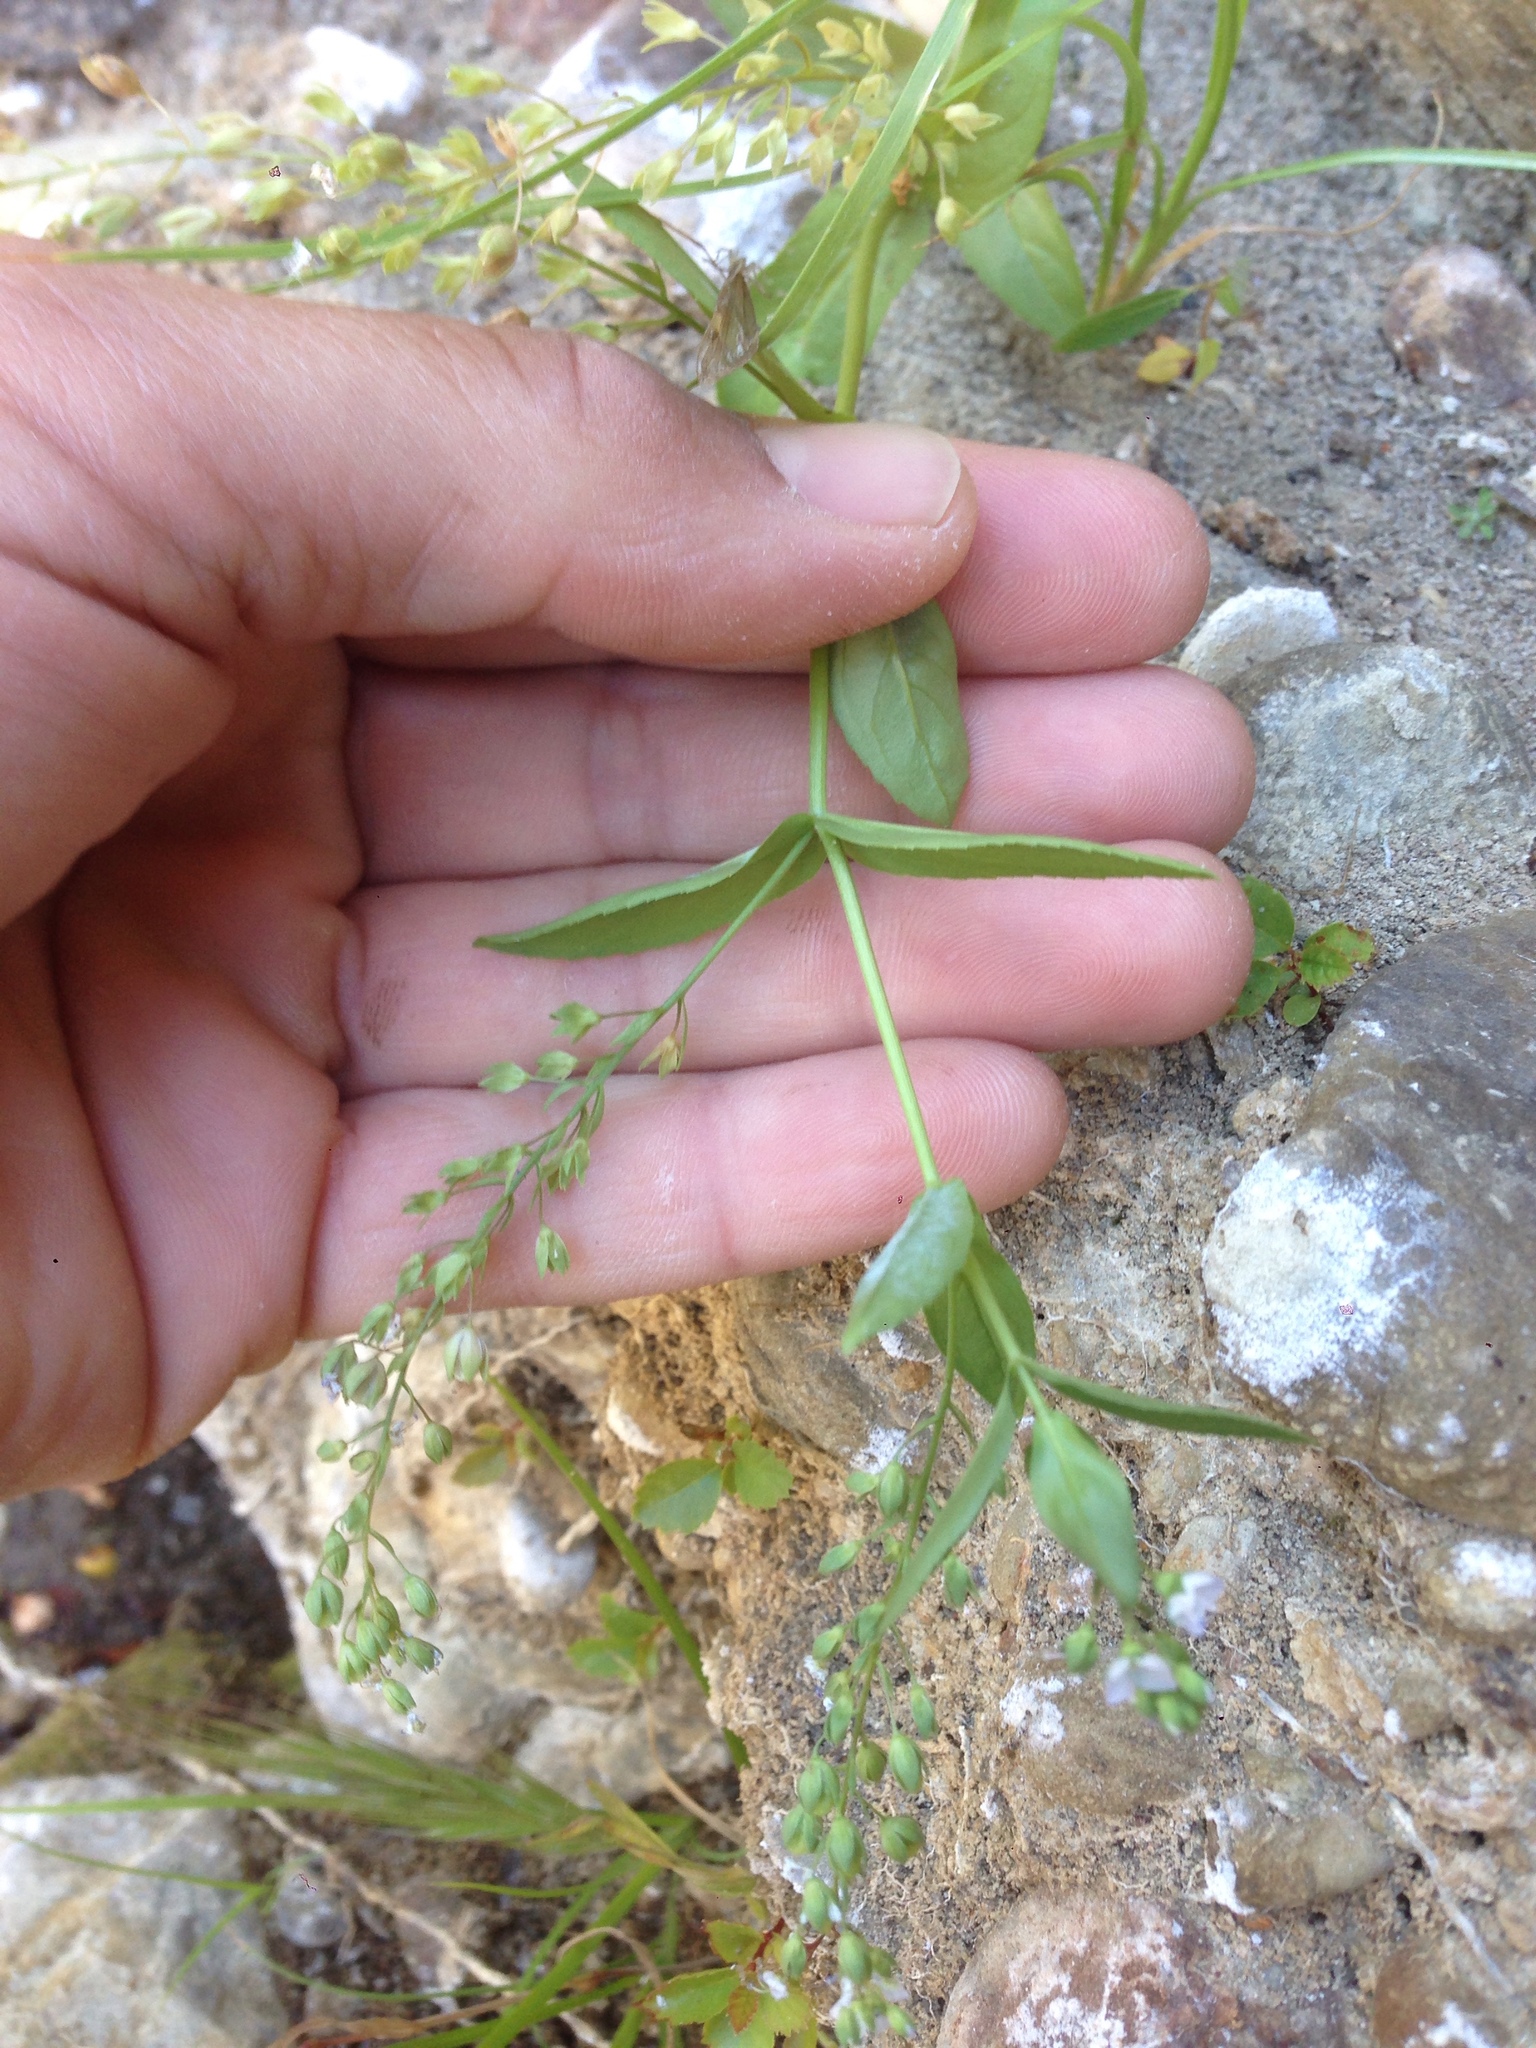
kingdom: Plantae
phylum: Tracheophyta
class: Magnoliopsida
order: Lamiales
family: Plantaginaceae
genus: Veronica
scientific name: Veronica anagallis-aquatica
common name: Water speedwell
